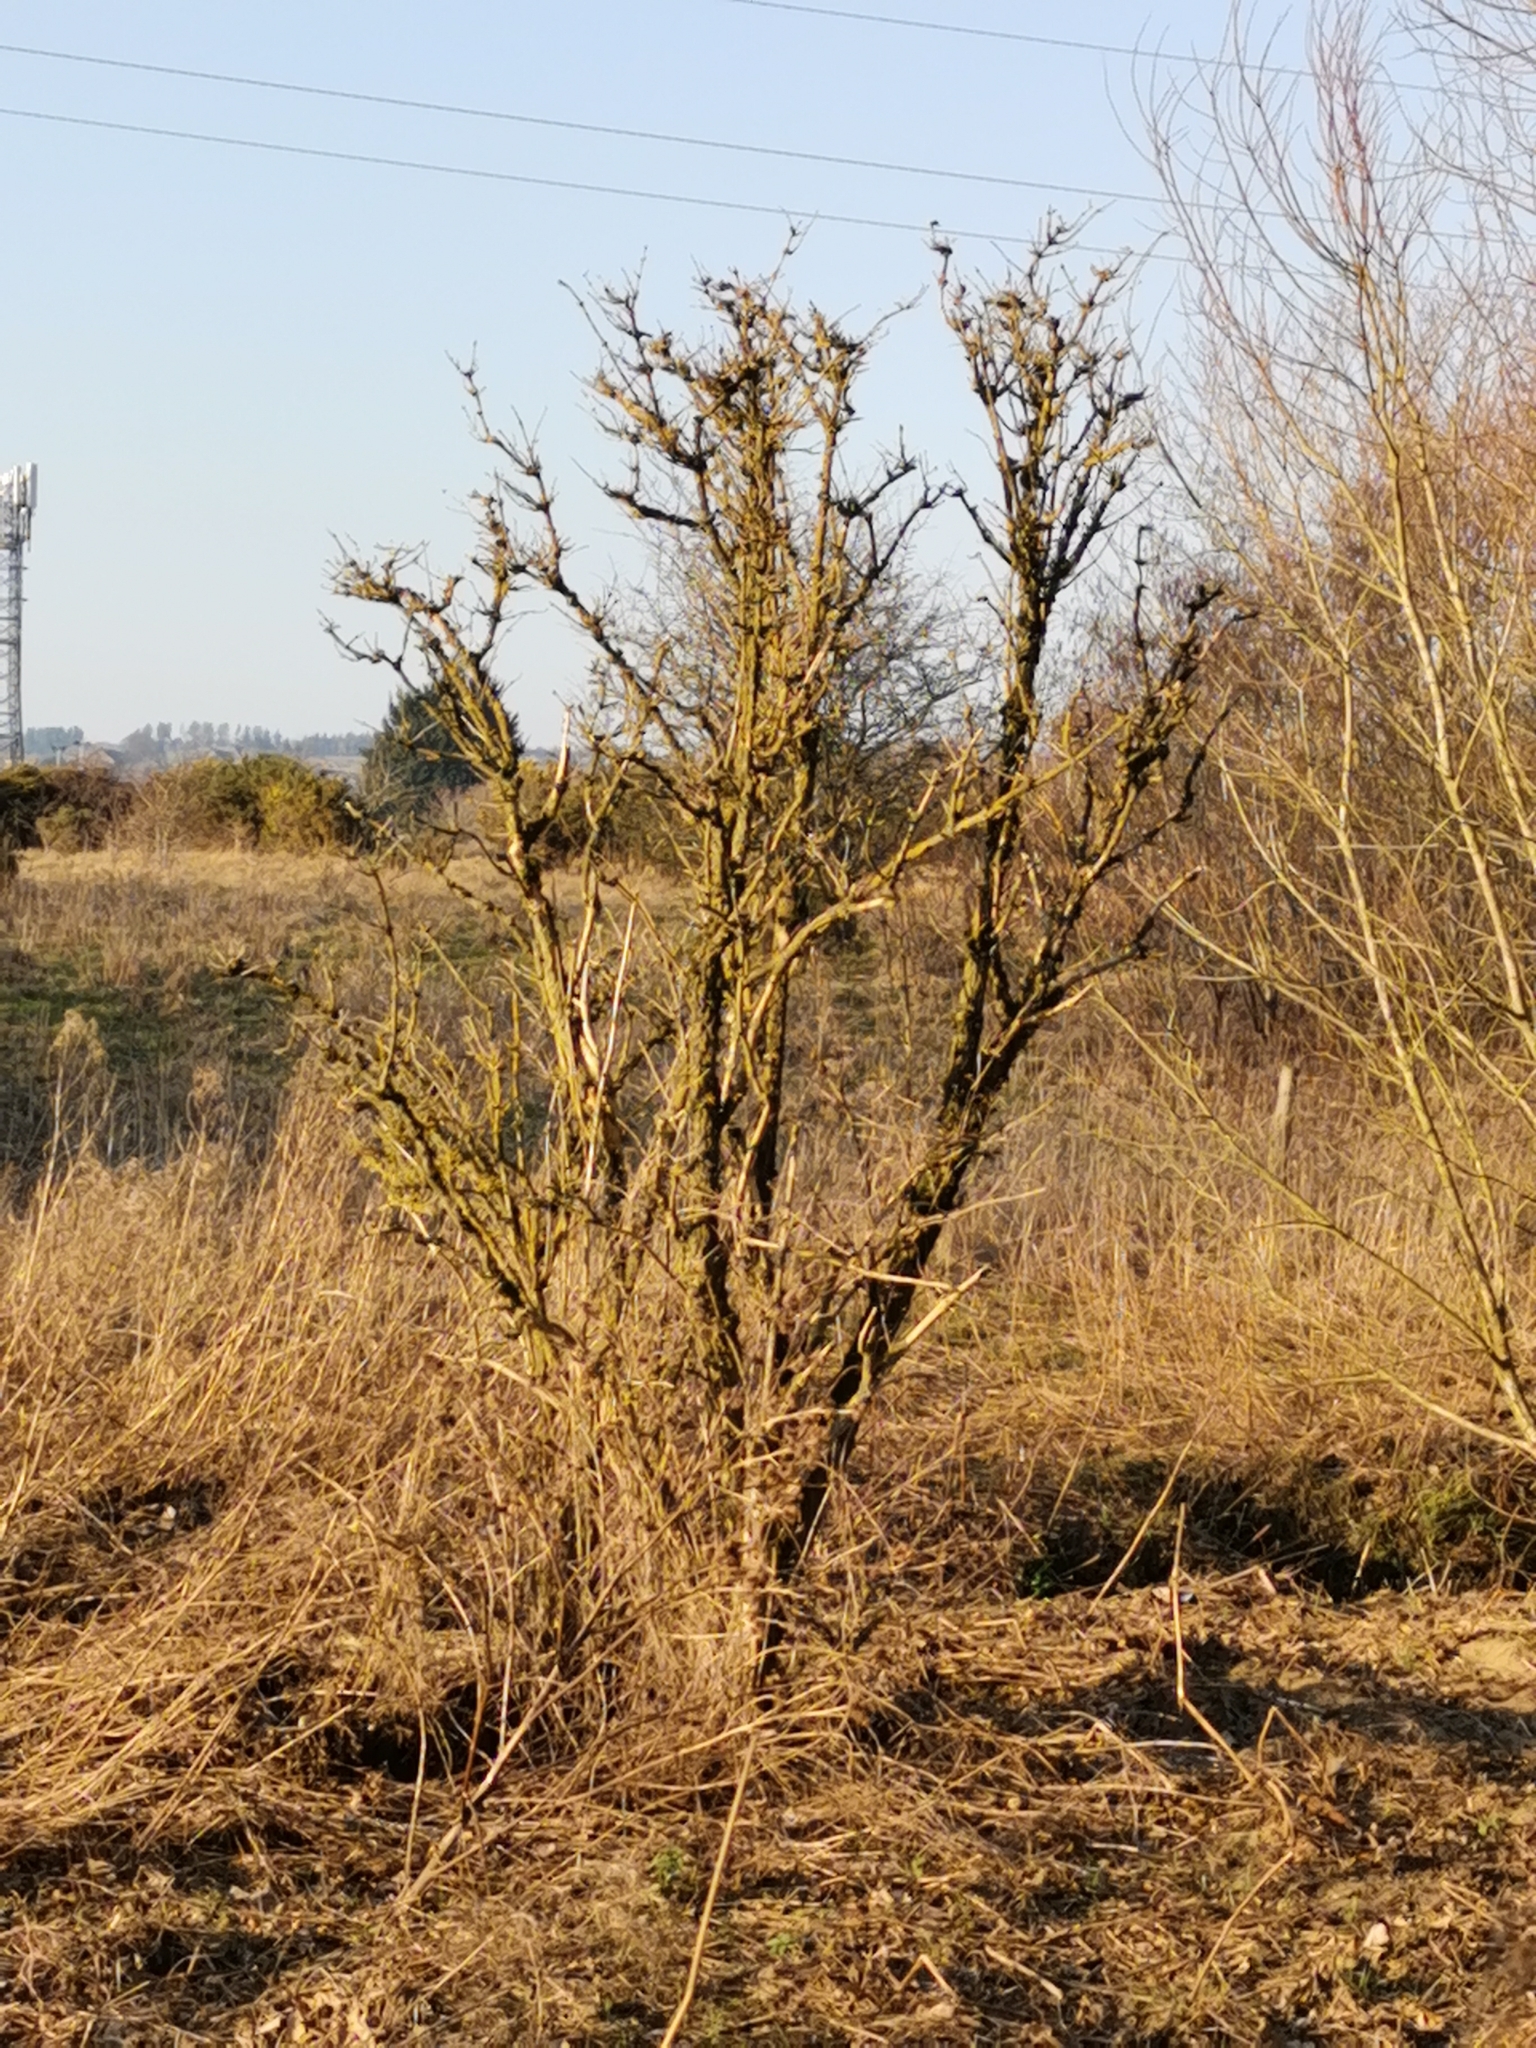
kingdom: Plantae
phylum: Tracheophyta
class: Magnoliopsida
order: Dipsacales
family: Viburnaceae
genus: Sambucus
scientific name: Sambucus nigra
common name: Elder
